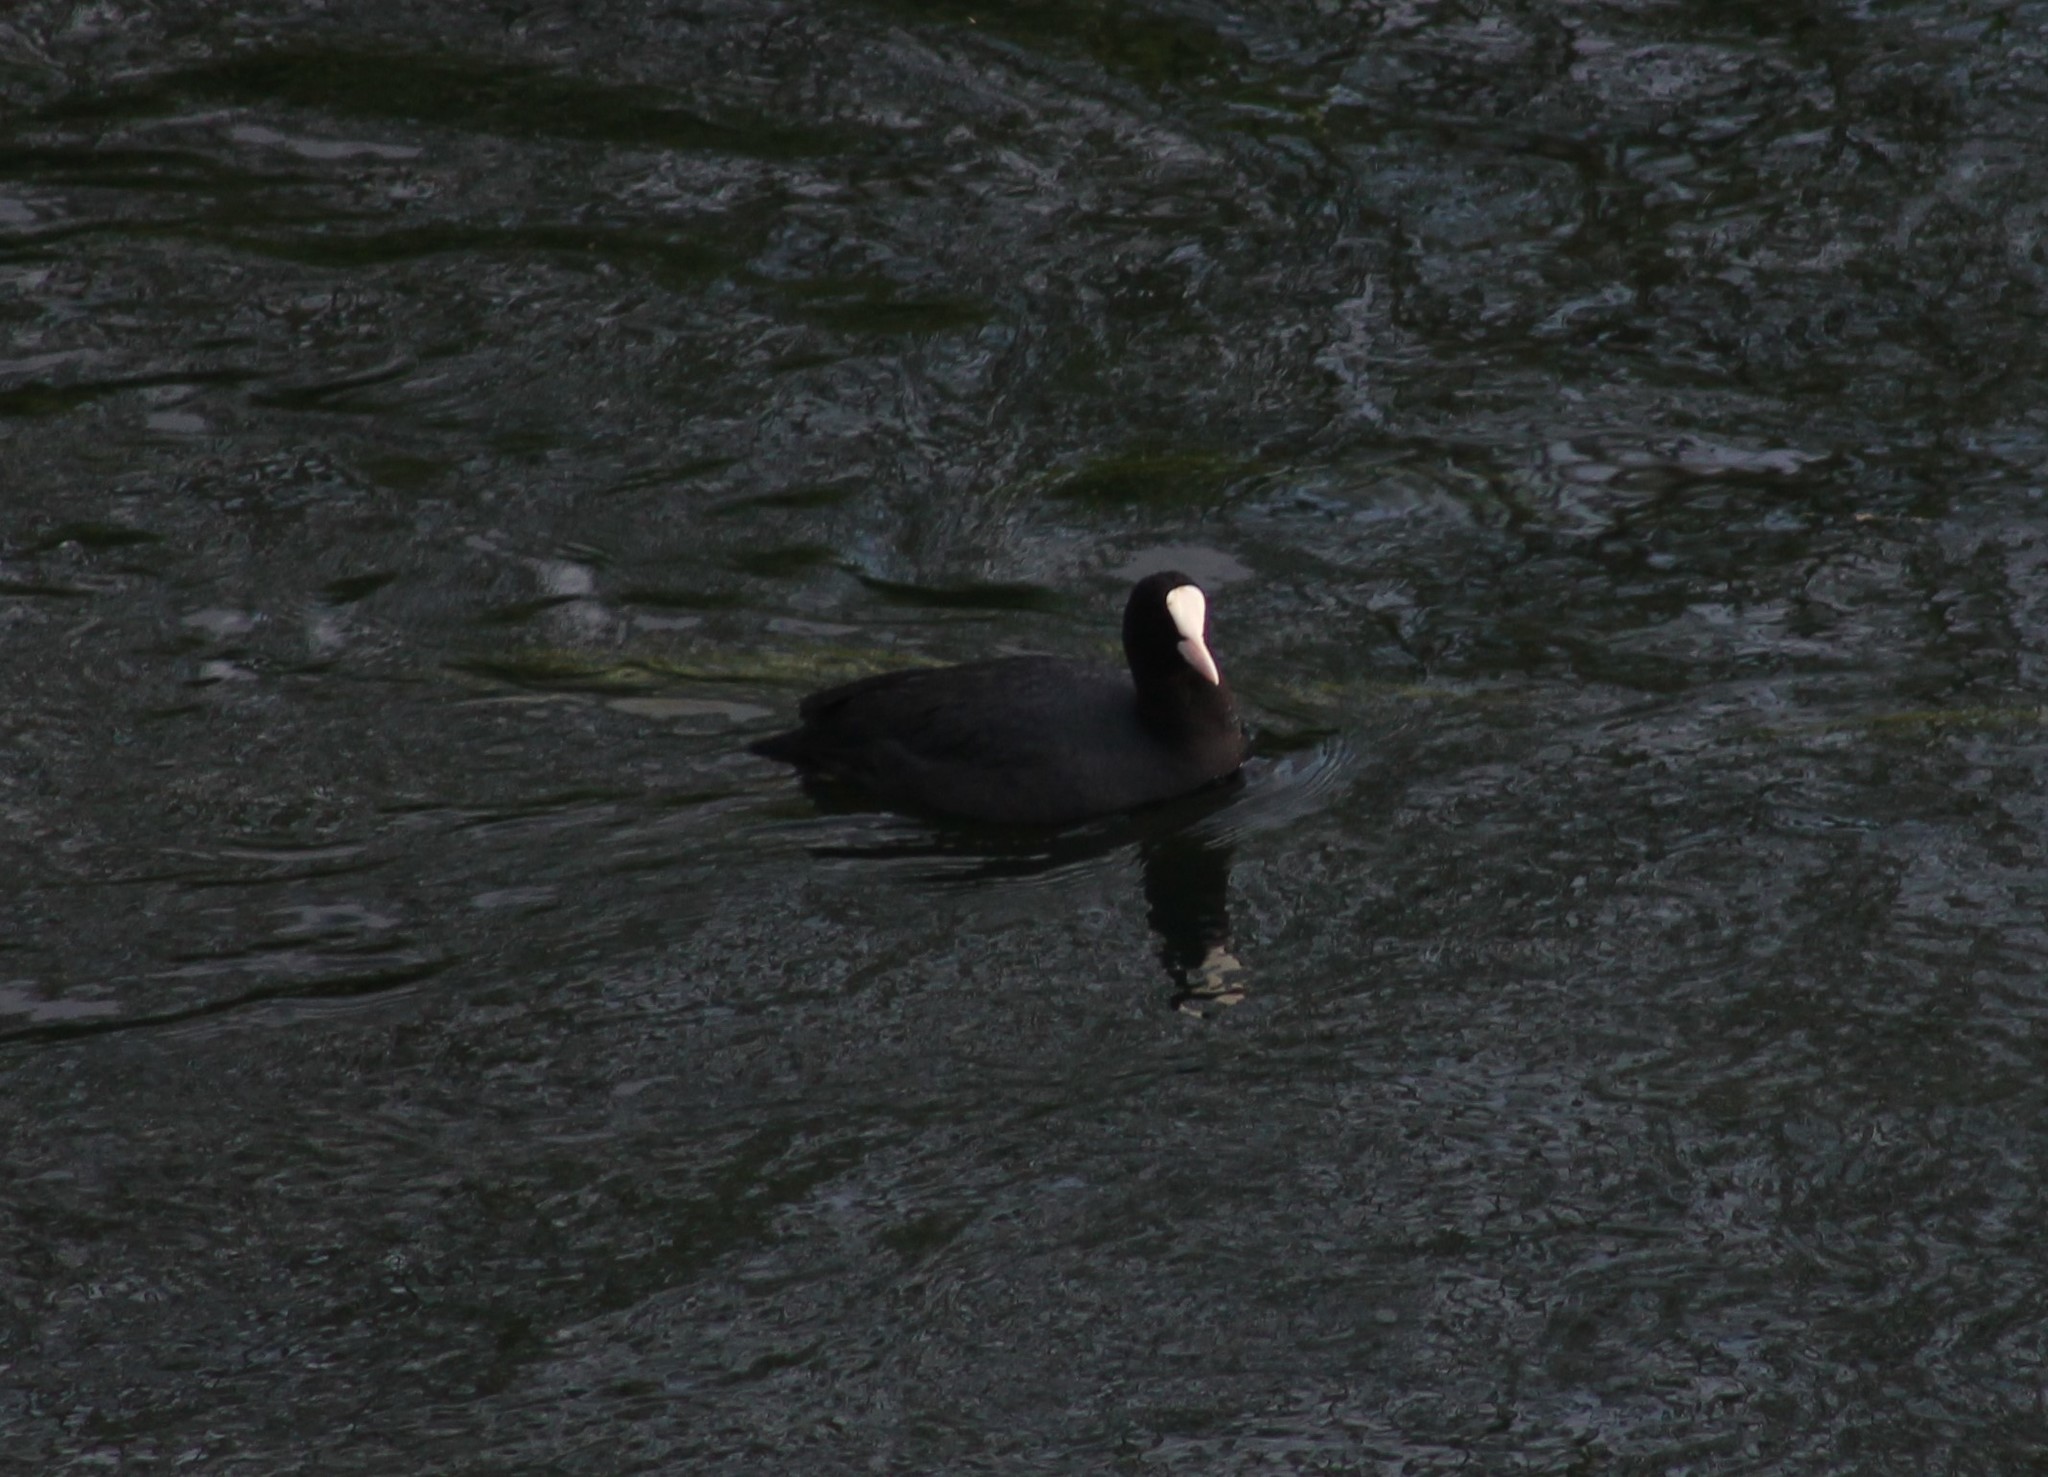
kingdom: Animalia
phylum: Chordata
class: Aves
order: Gruiformes
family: Rallidae
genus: Fulica
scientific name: Fulica atra
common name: Eurasian coot
